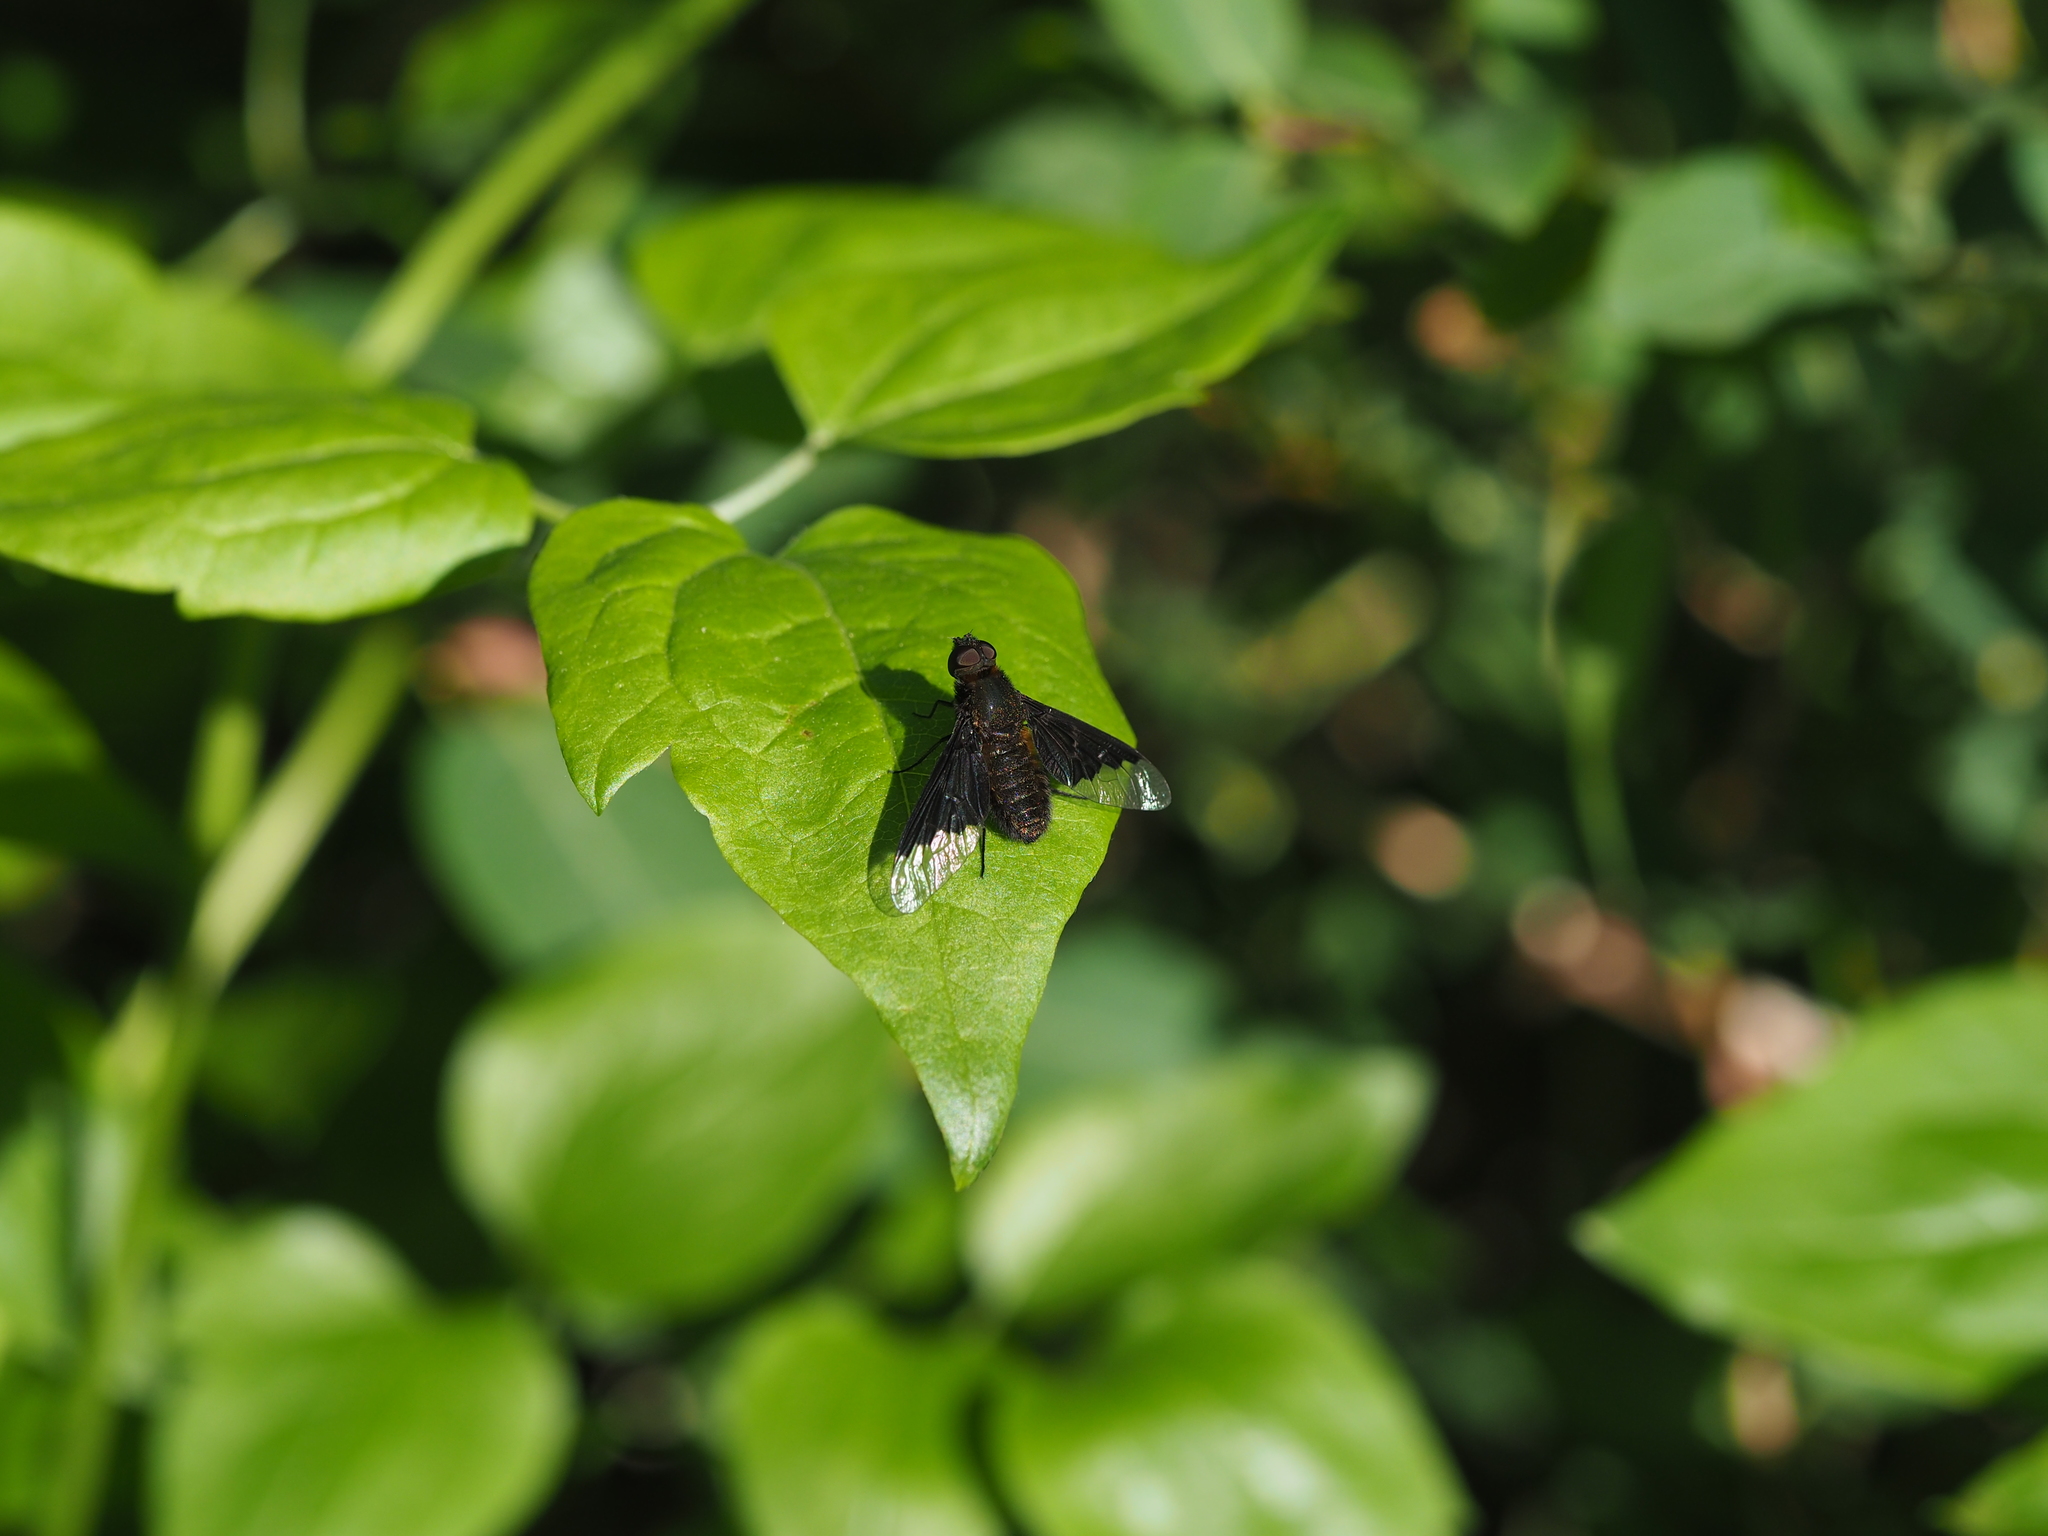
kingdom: Animalia
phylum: Arthropoda
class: Insecta
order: Diptera
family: Bombyliidae
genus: Hemipenthes
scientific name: Hemipenthes morio
